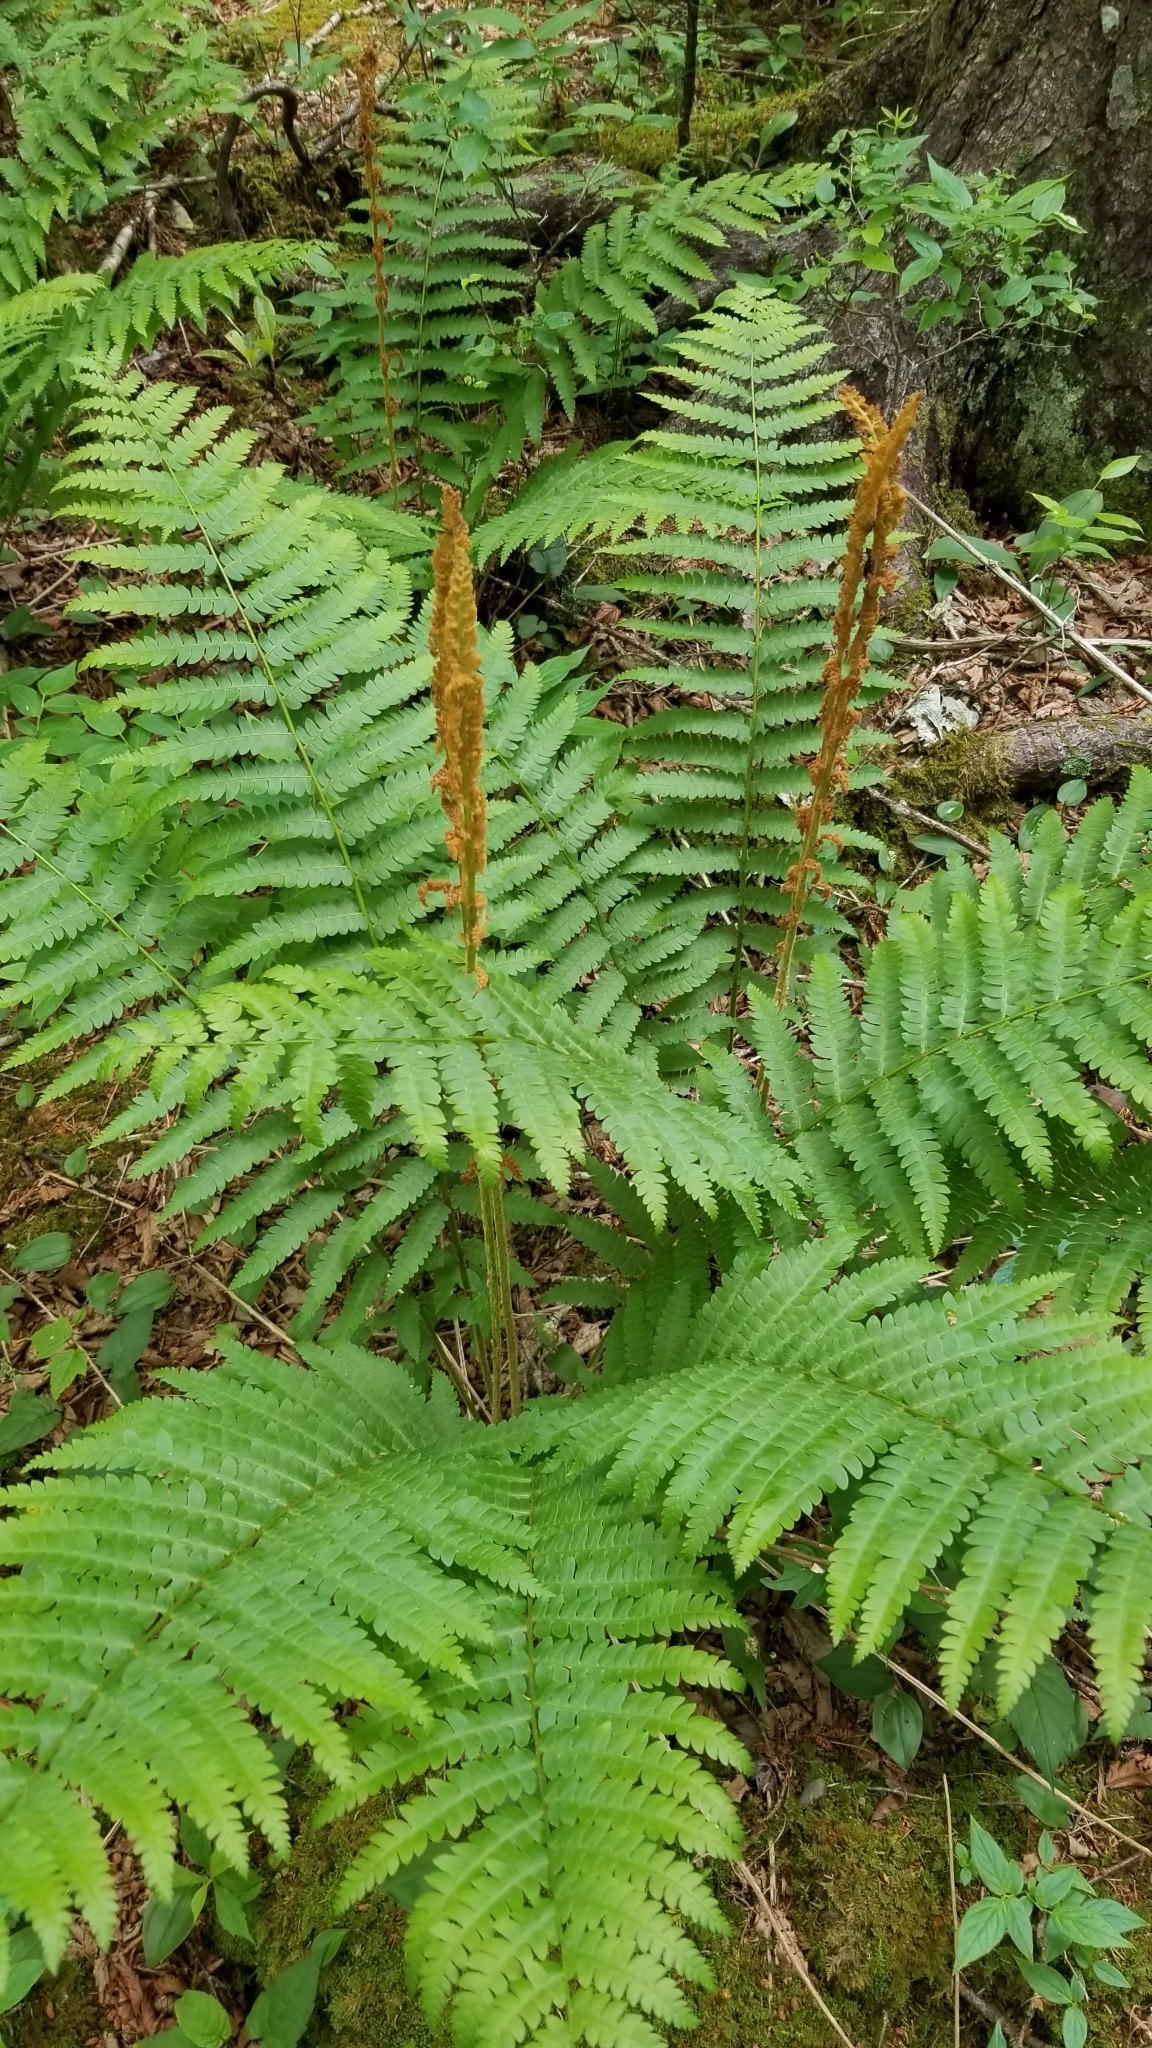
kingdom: Plantae
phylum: Tracheophyta
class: Polypodiopsida
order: Osmundales
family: Osmundaceae
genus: Osmundastrum
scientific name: Osmundastrum cinnamomeum
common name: Cinnamon fern
